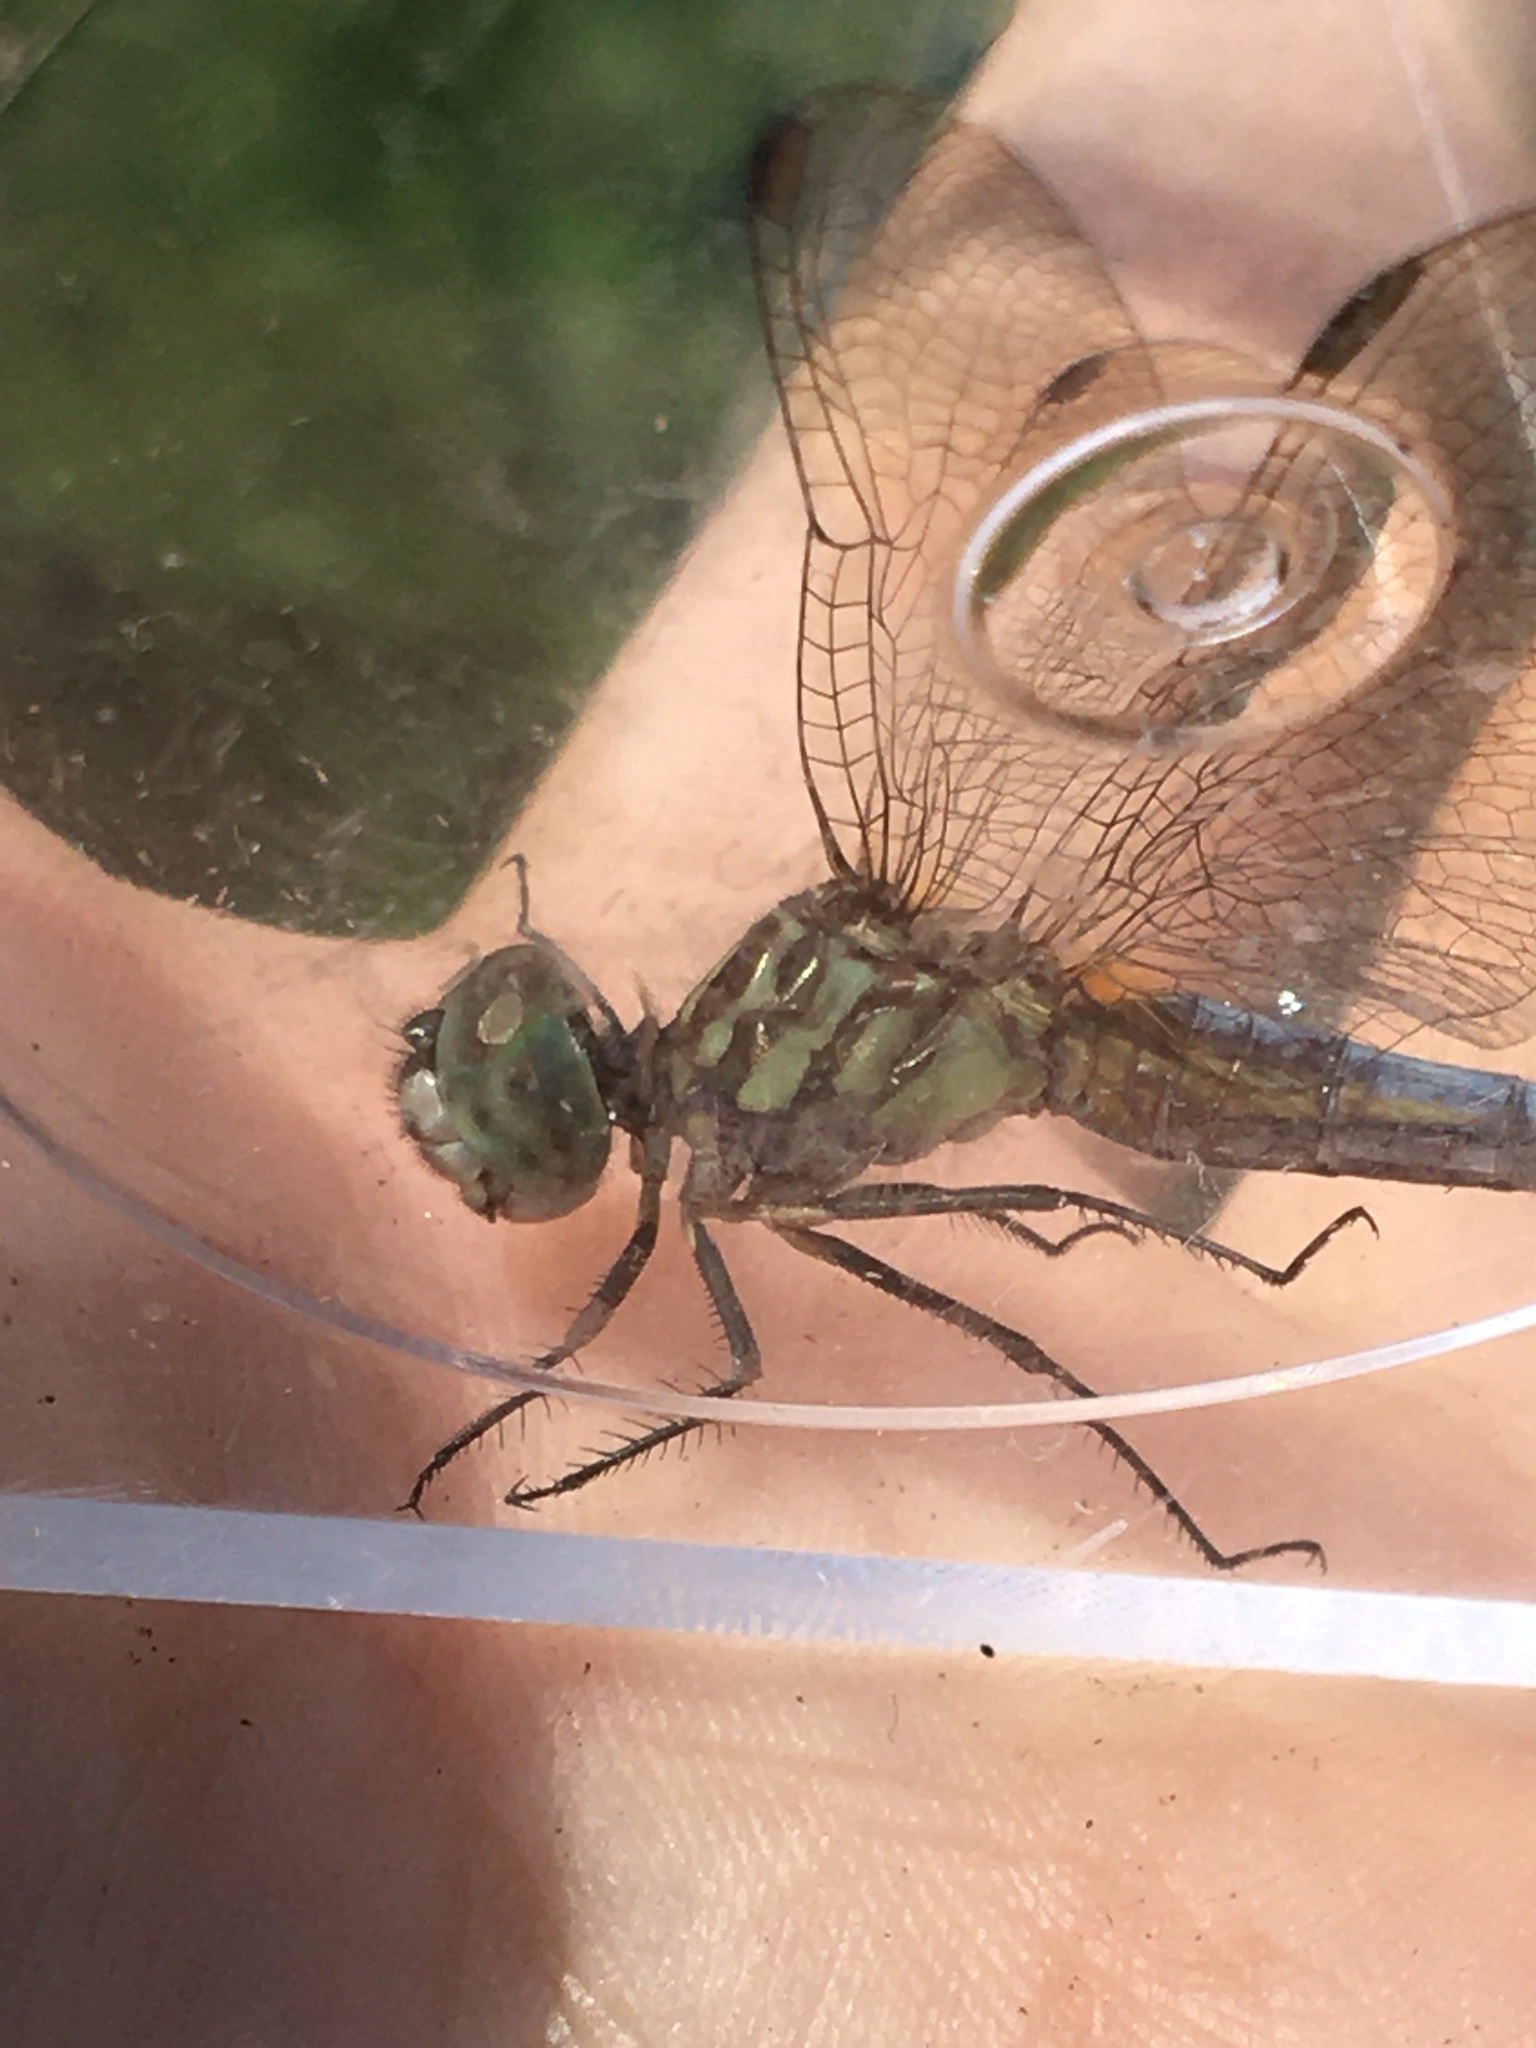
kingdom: Animalia
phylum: Arthropoda
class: Insecta
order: Odonata
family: Libellulidae
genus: Pachydiplax
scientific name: Pachydiplax longipennis
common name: Blue dasher
